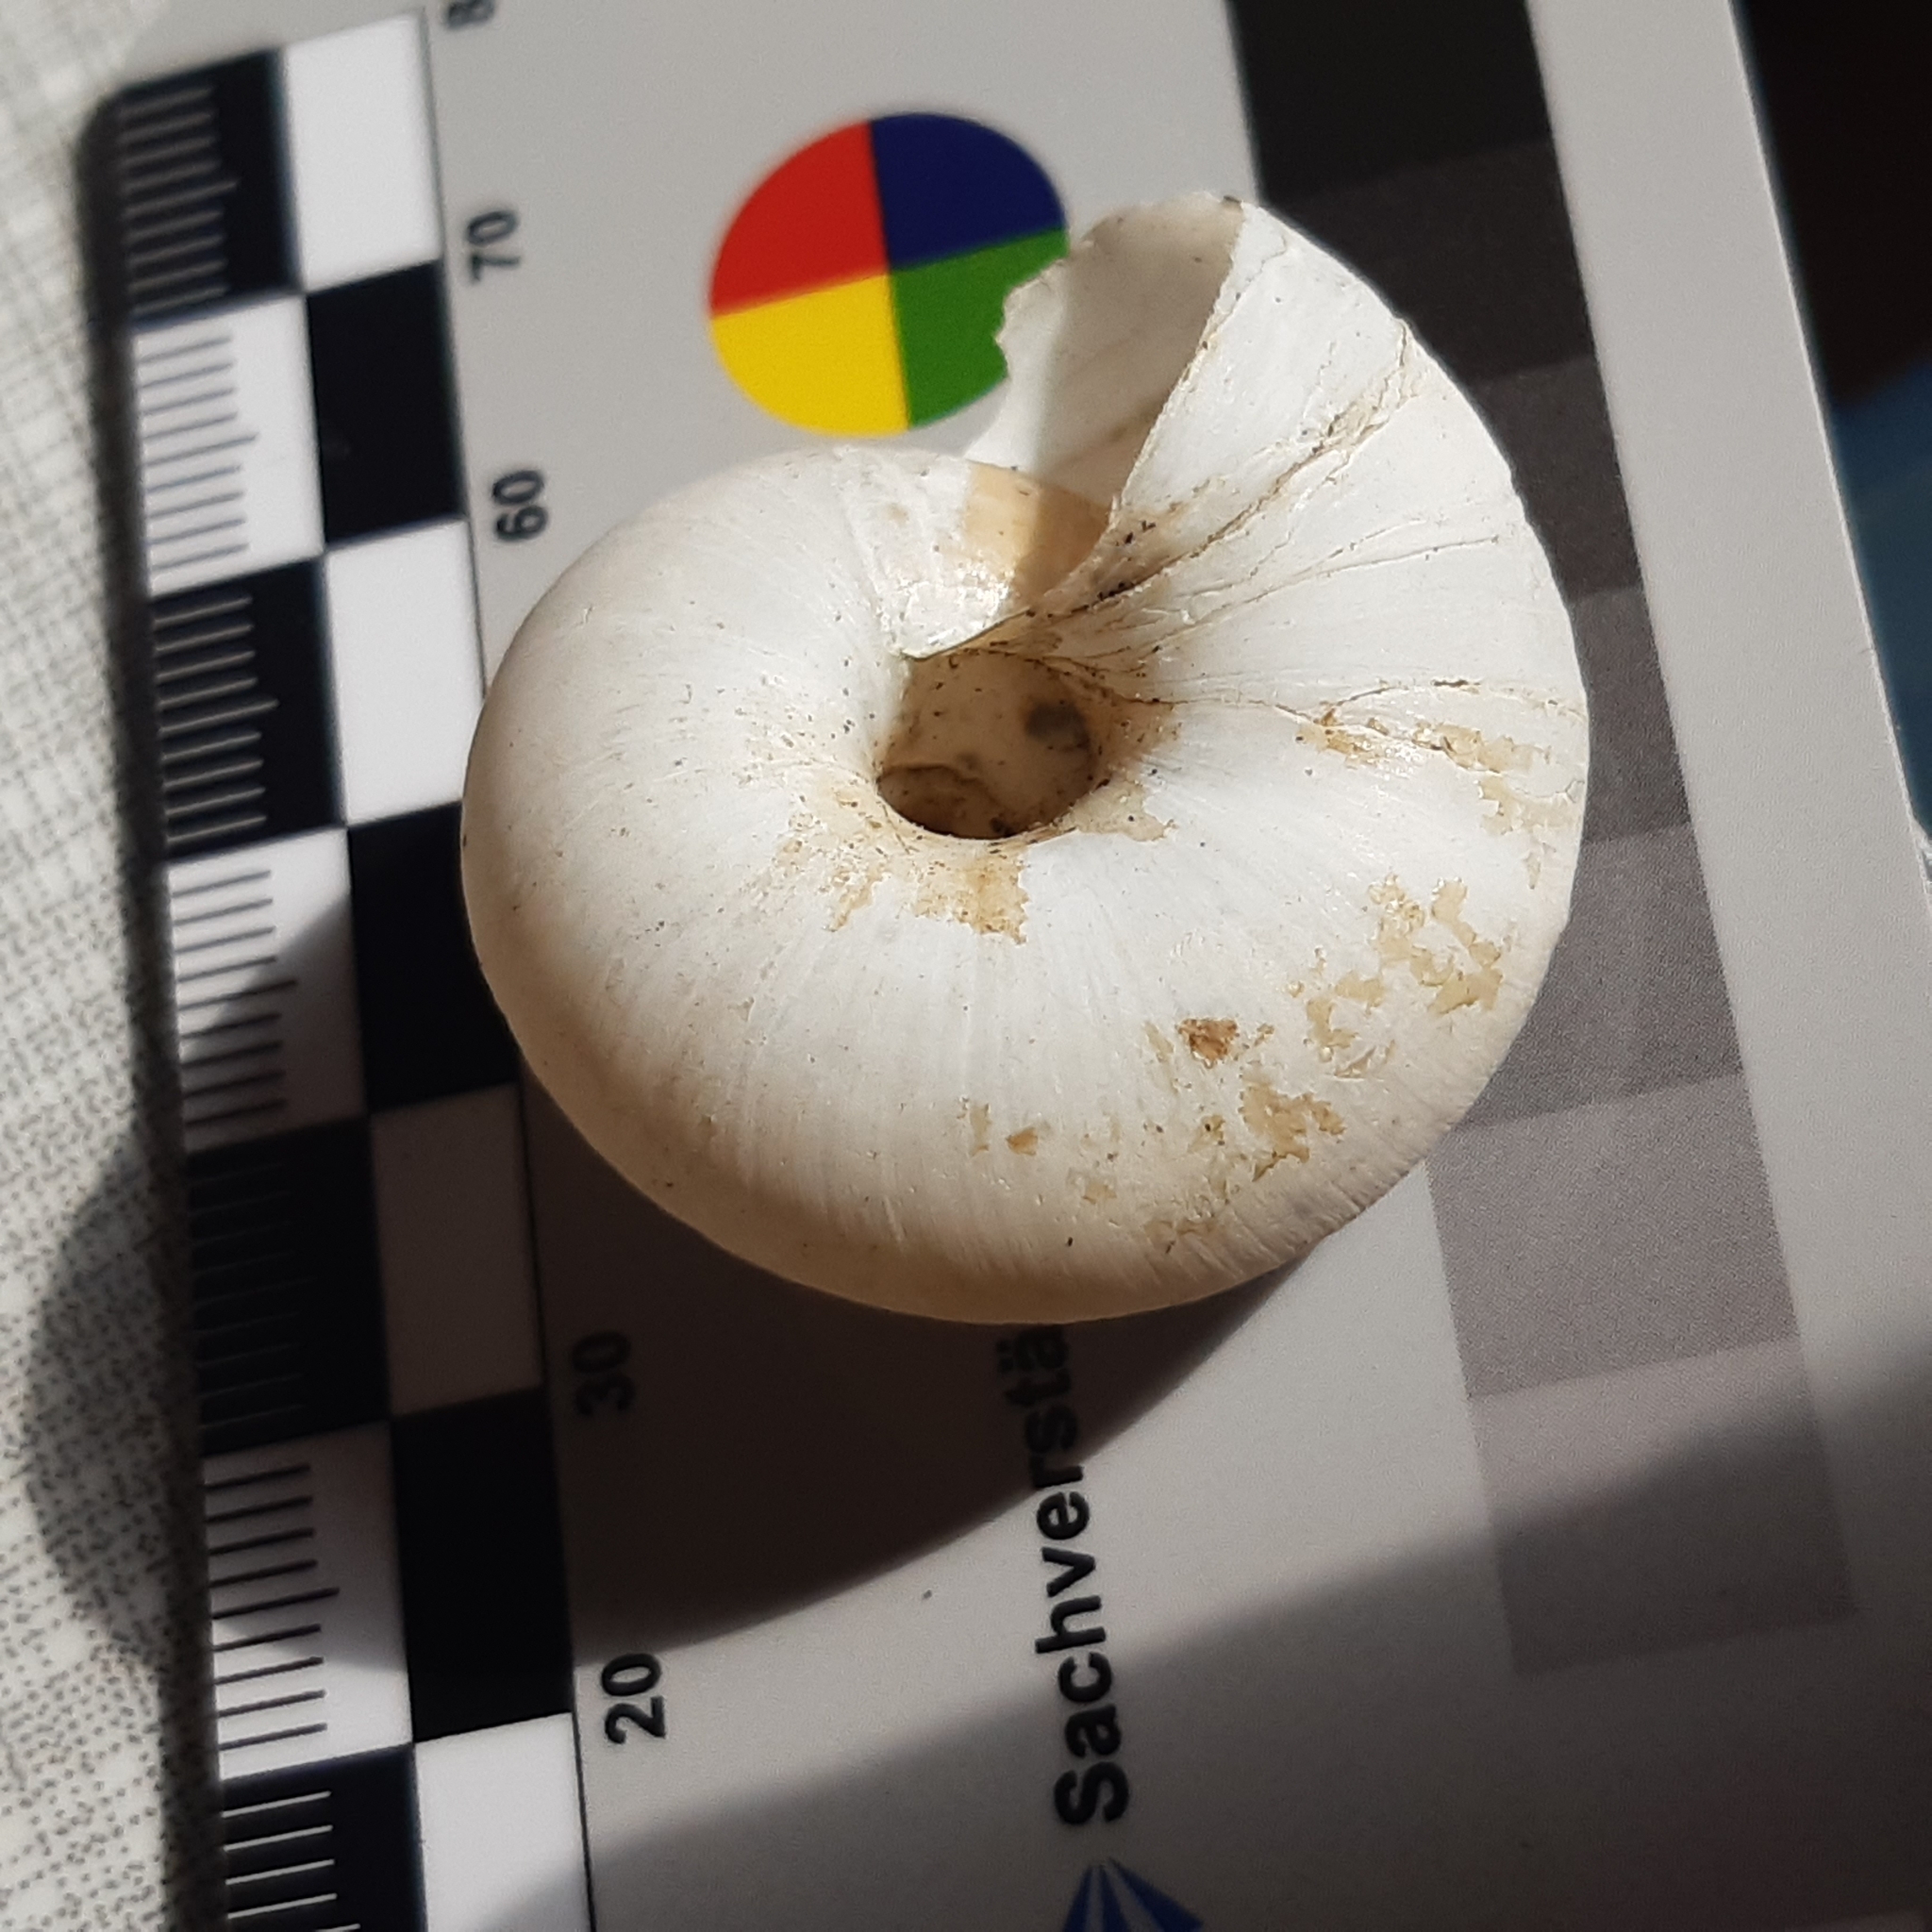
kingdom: Animalia
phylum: Mollusca
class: Gastropoda
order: Stylommatophora
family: Zonitidae
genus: Zonites
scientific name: Zonites algirus
